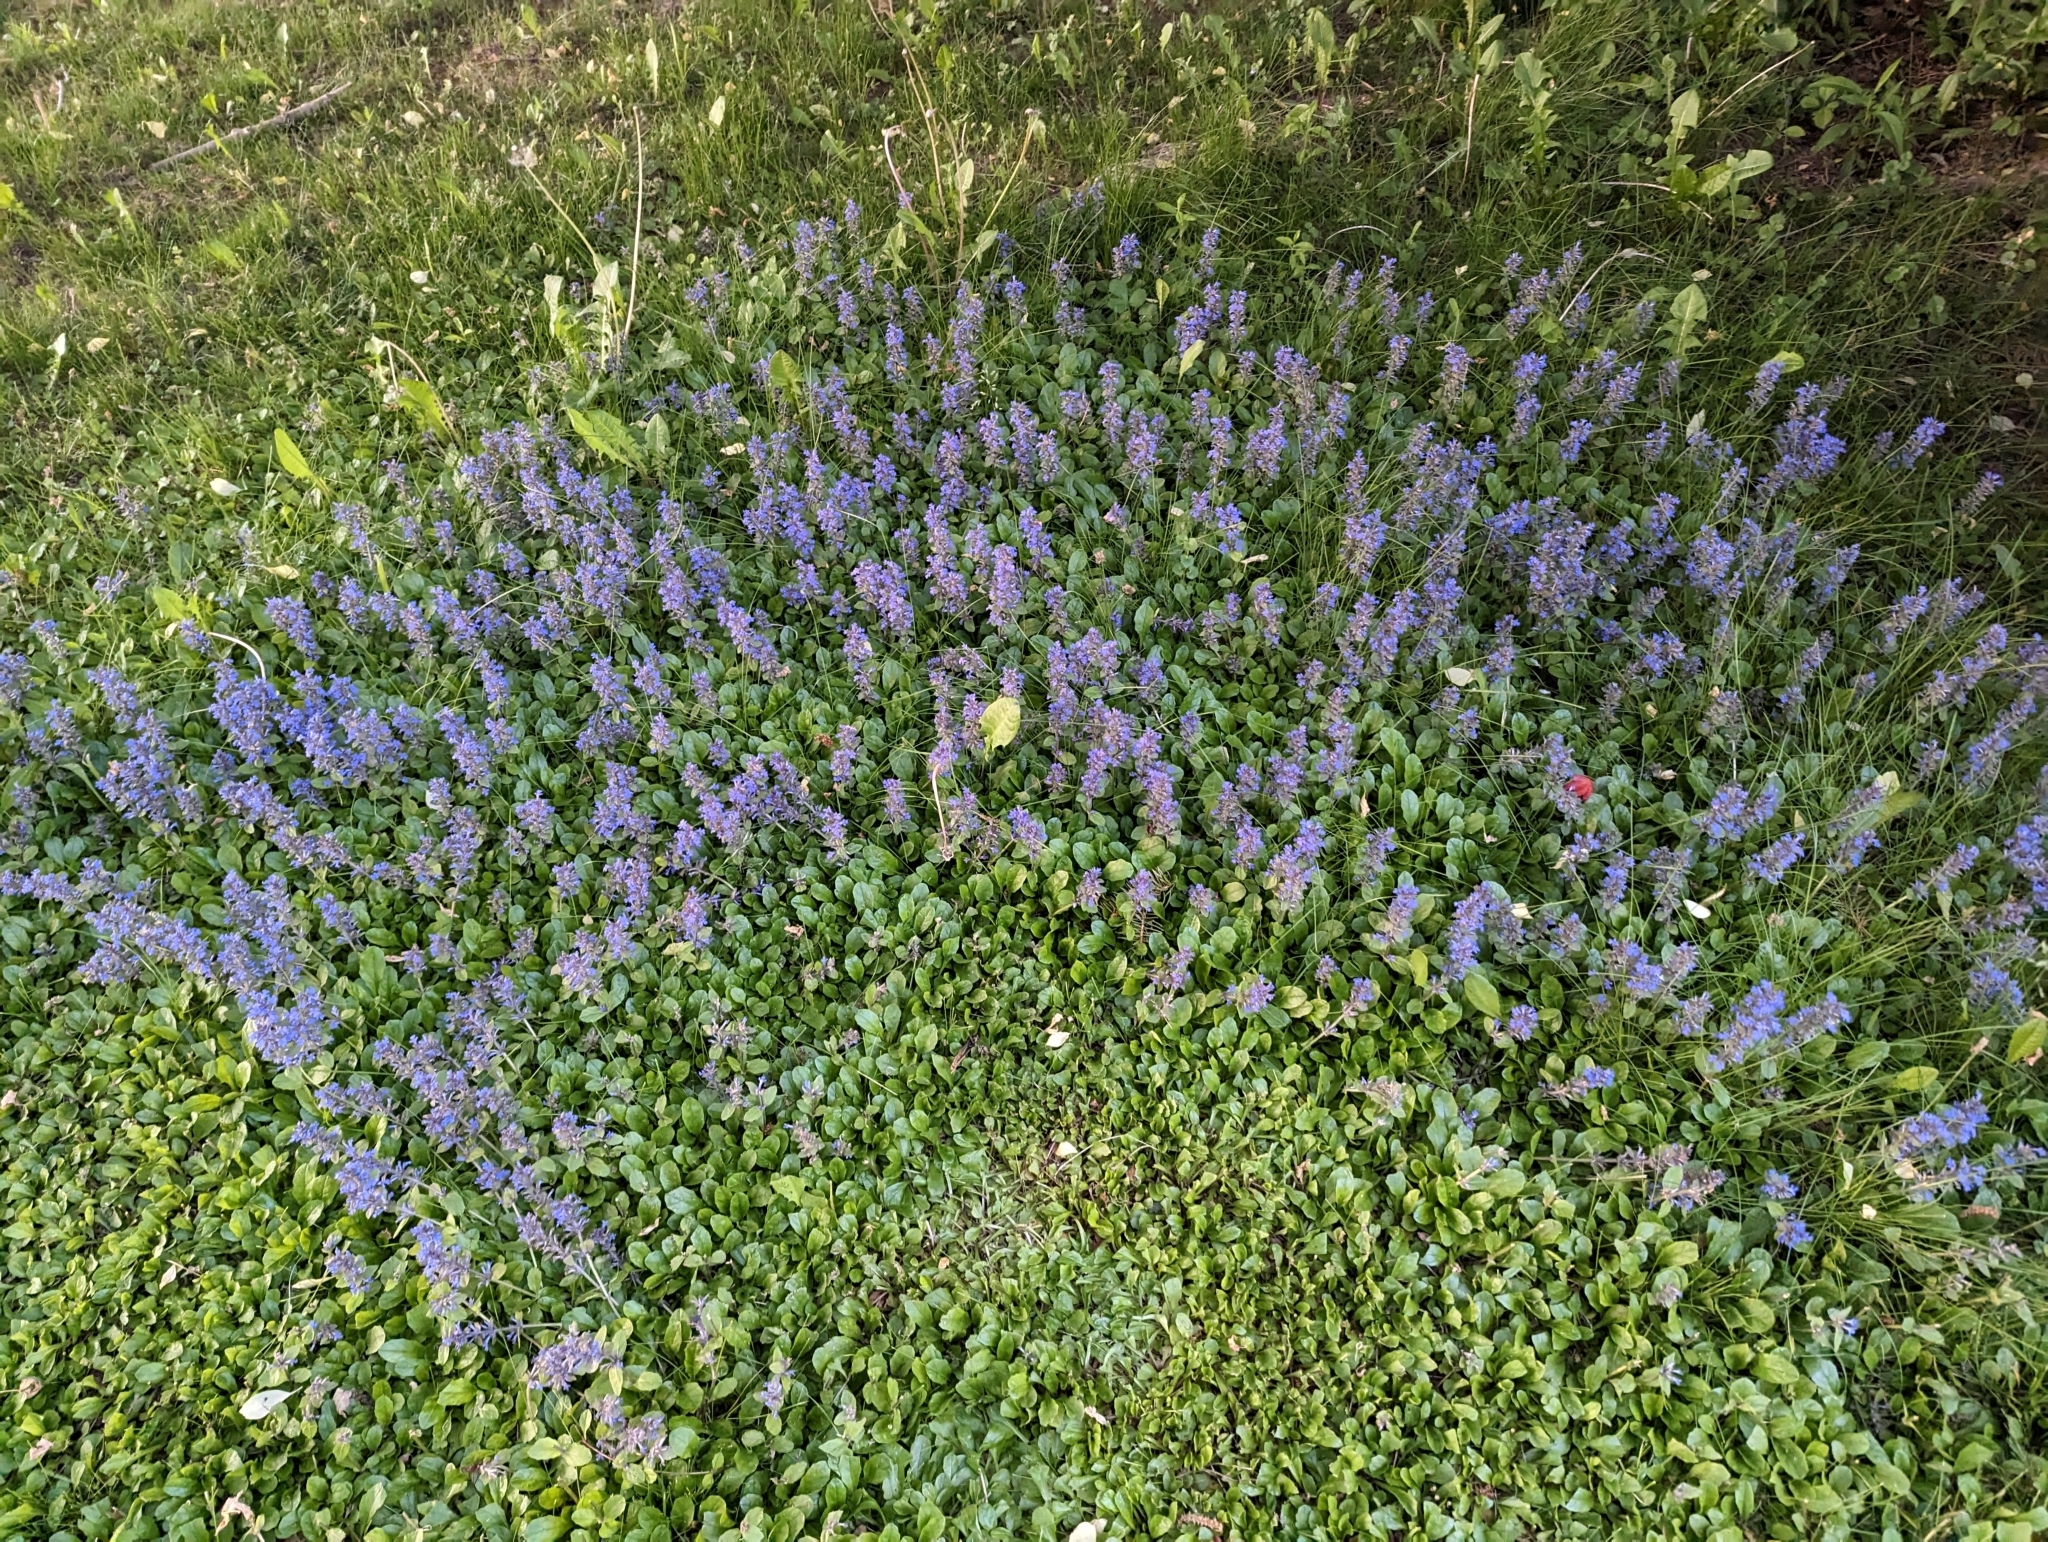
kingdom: Plantae
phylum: Tracheophyta
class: Magnoliopsida
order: Lamiales
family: Lamiaceae
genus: Ajuga
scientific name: Ajuga reptans
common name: Bugle
